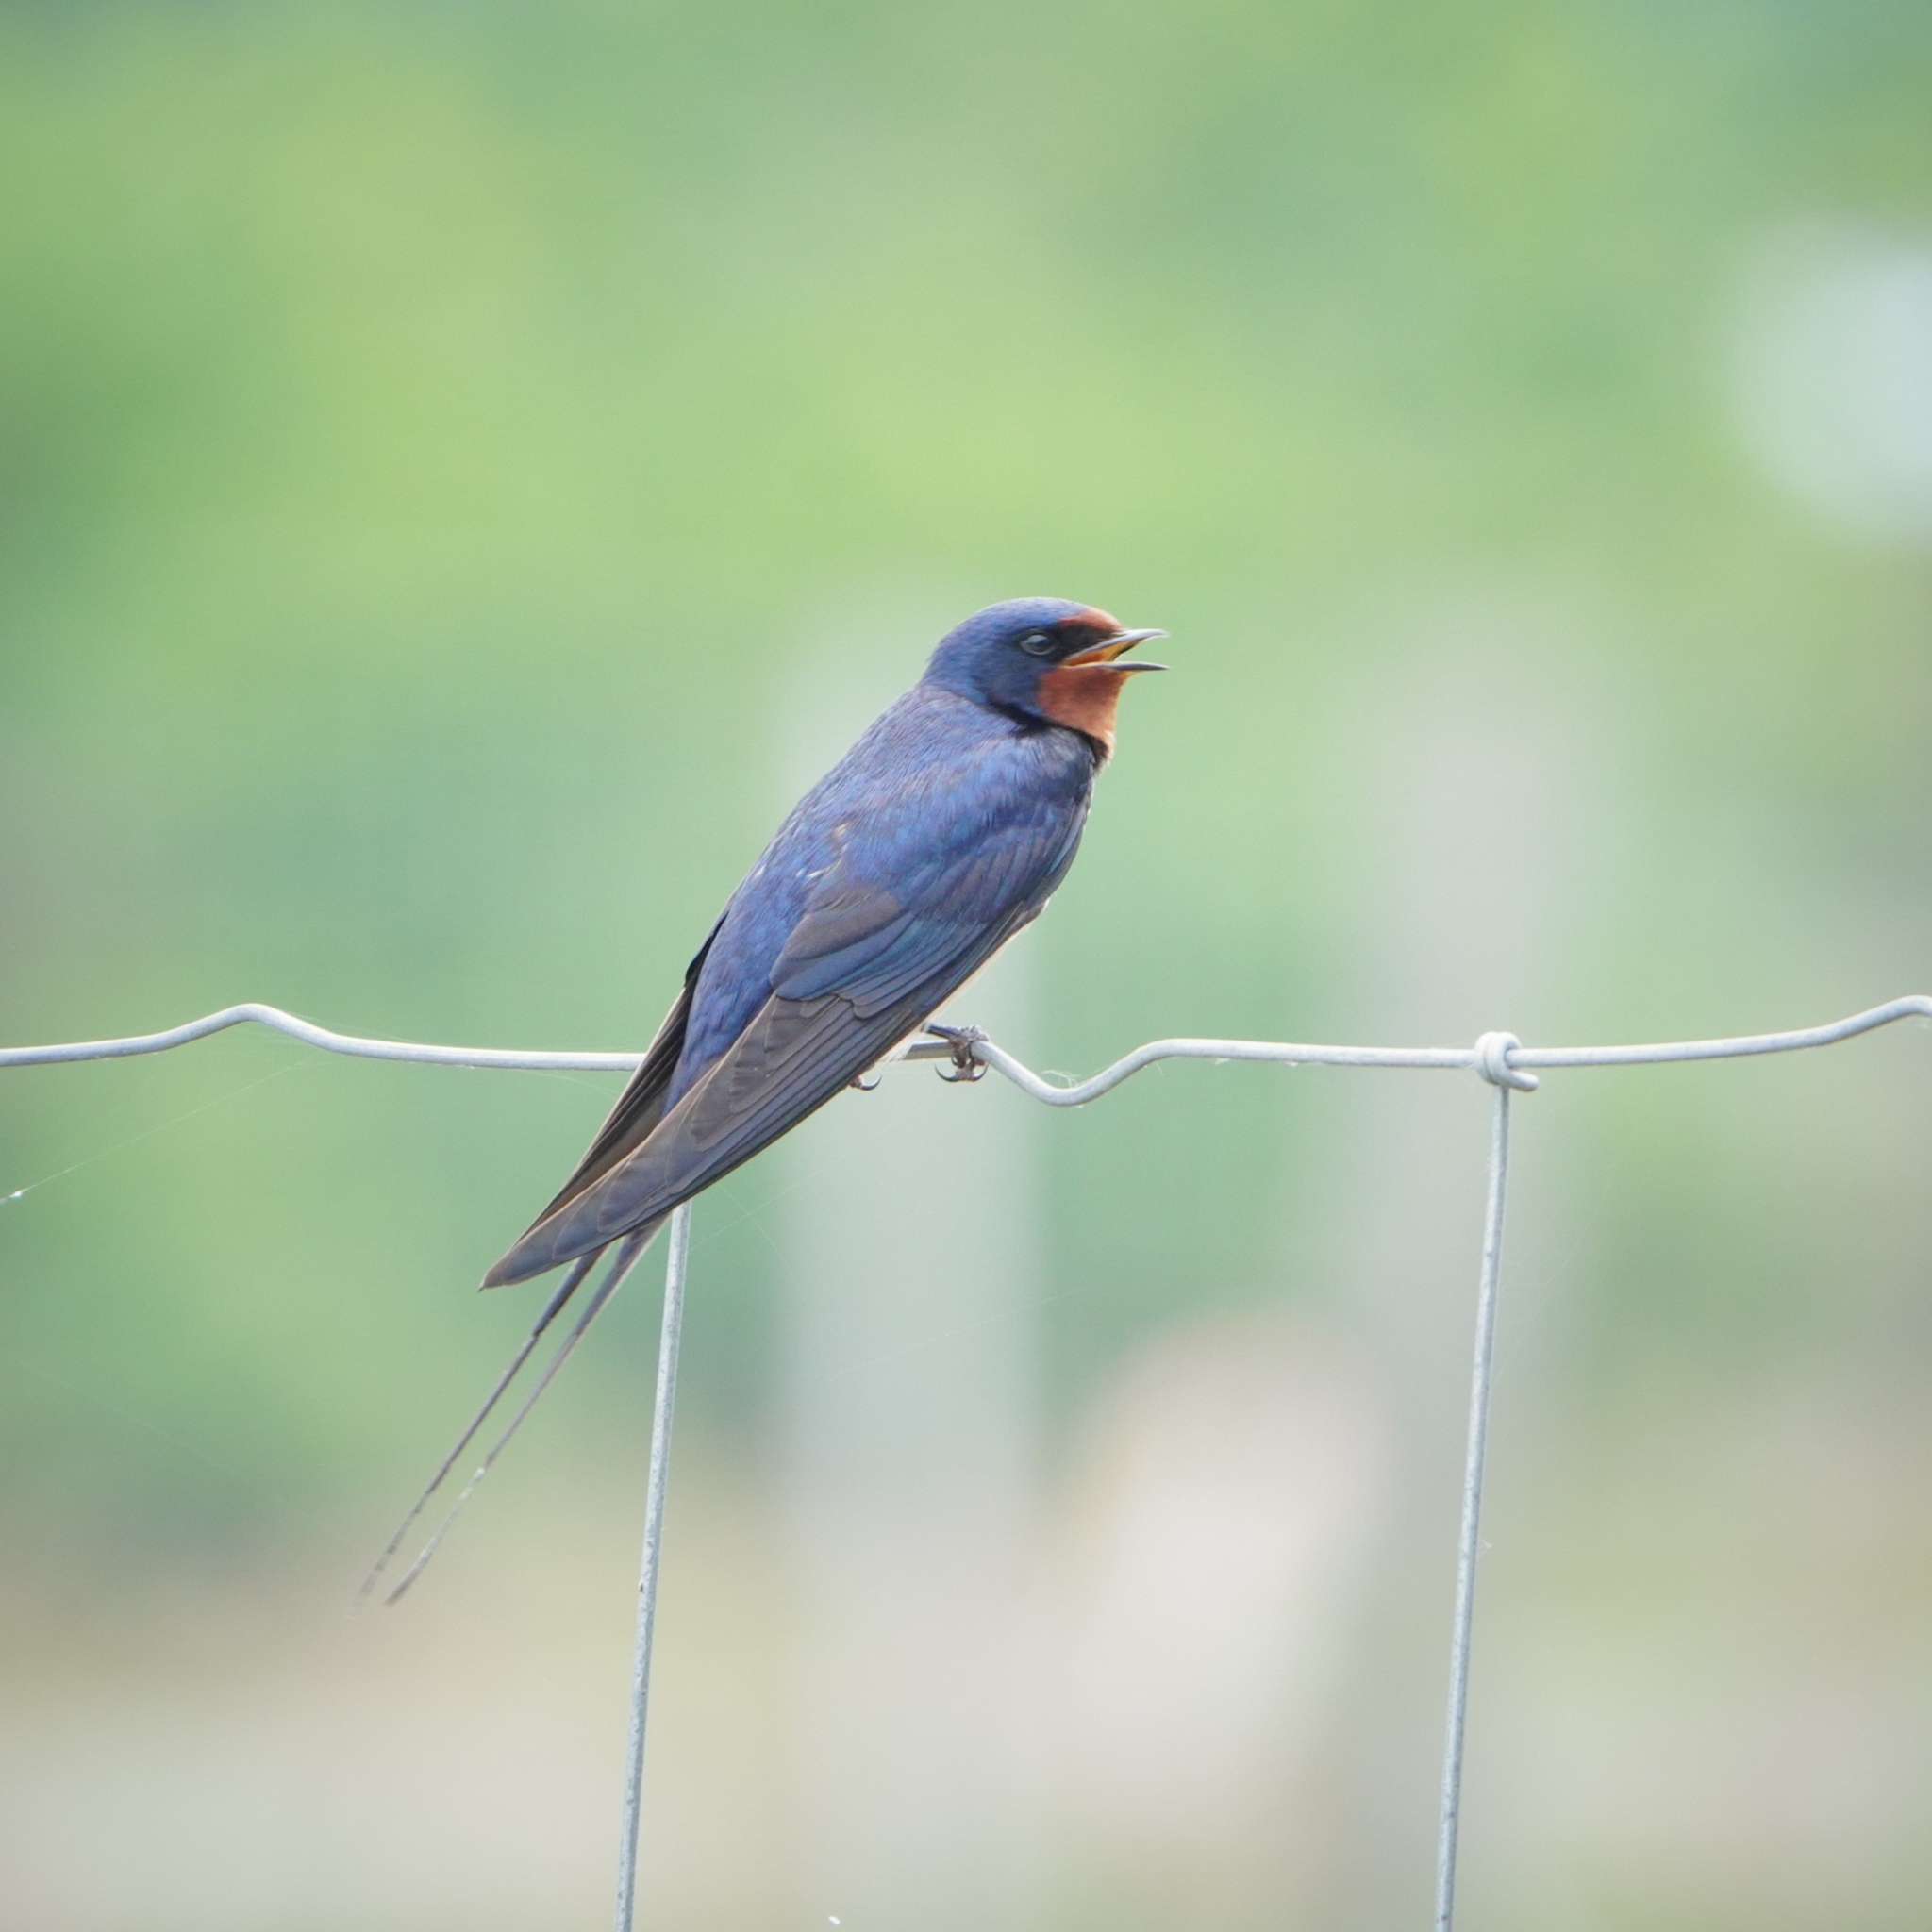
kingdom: Animalia
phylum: Chordata
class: Aves
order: Passeriformes
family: Hirundinidae
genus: Hirundo
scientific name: Hirundo rustica
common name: Barn swallow
